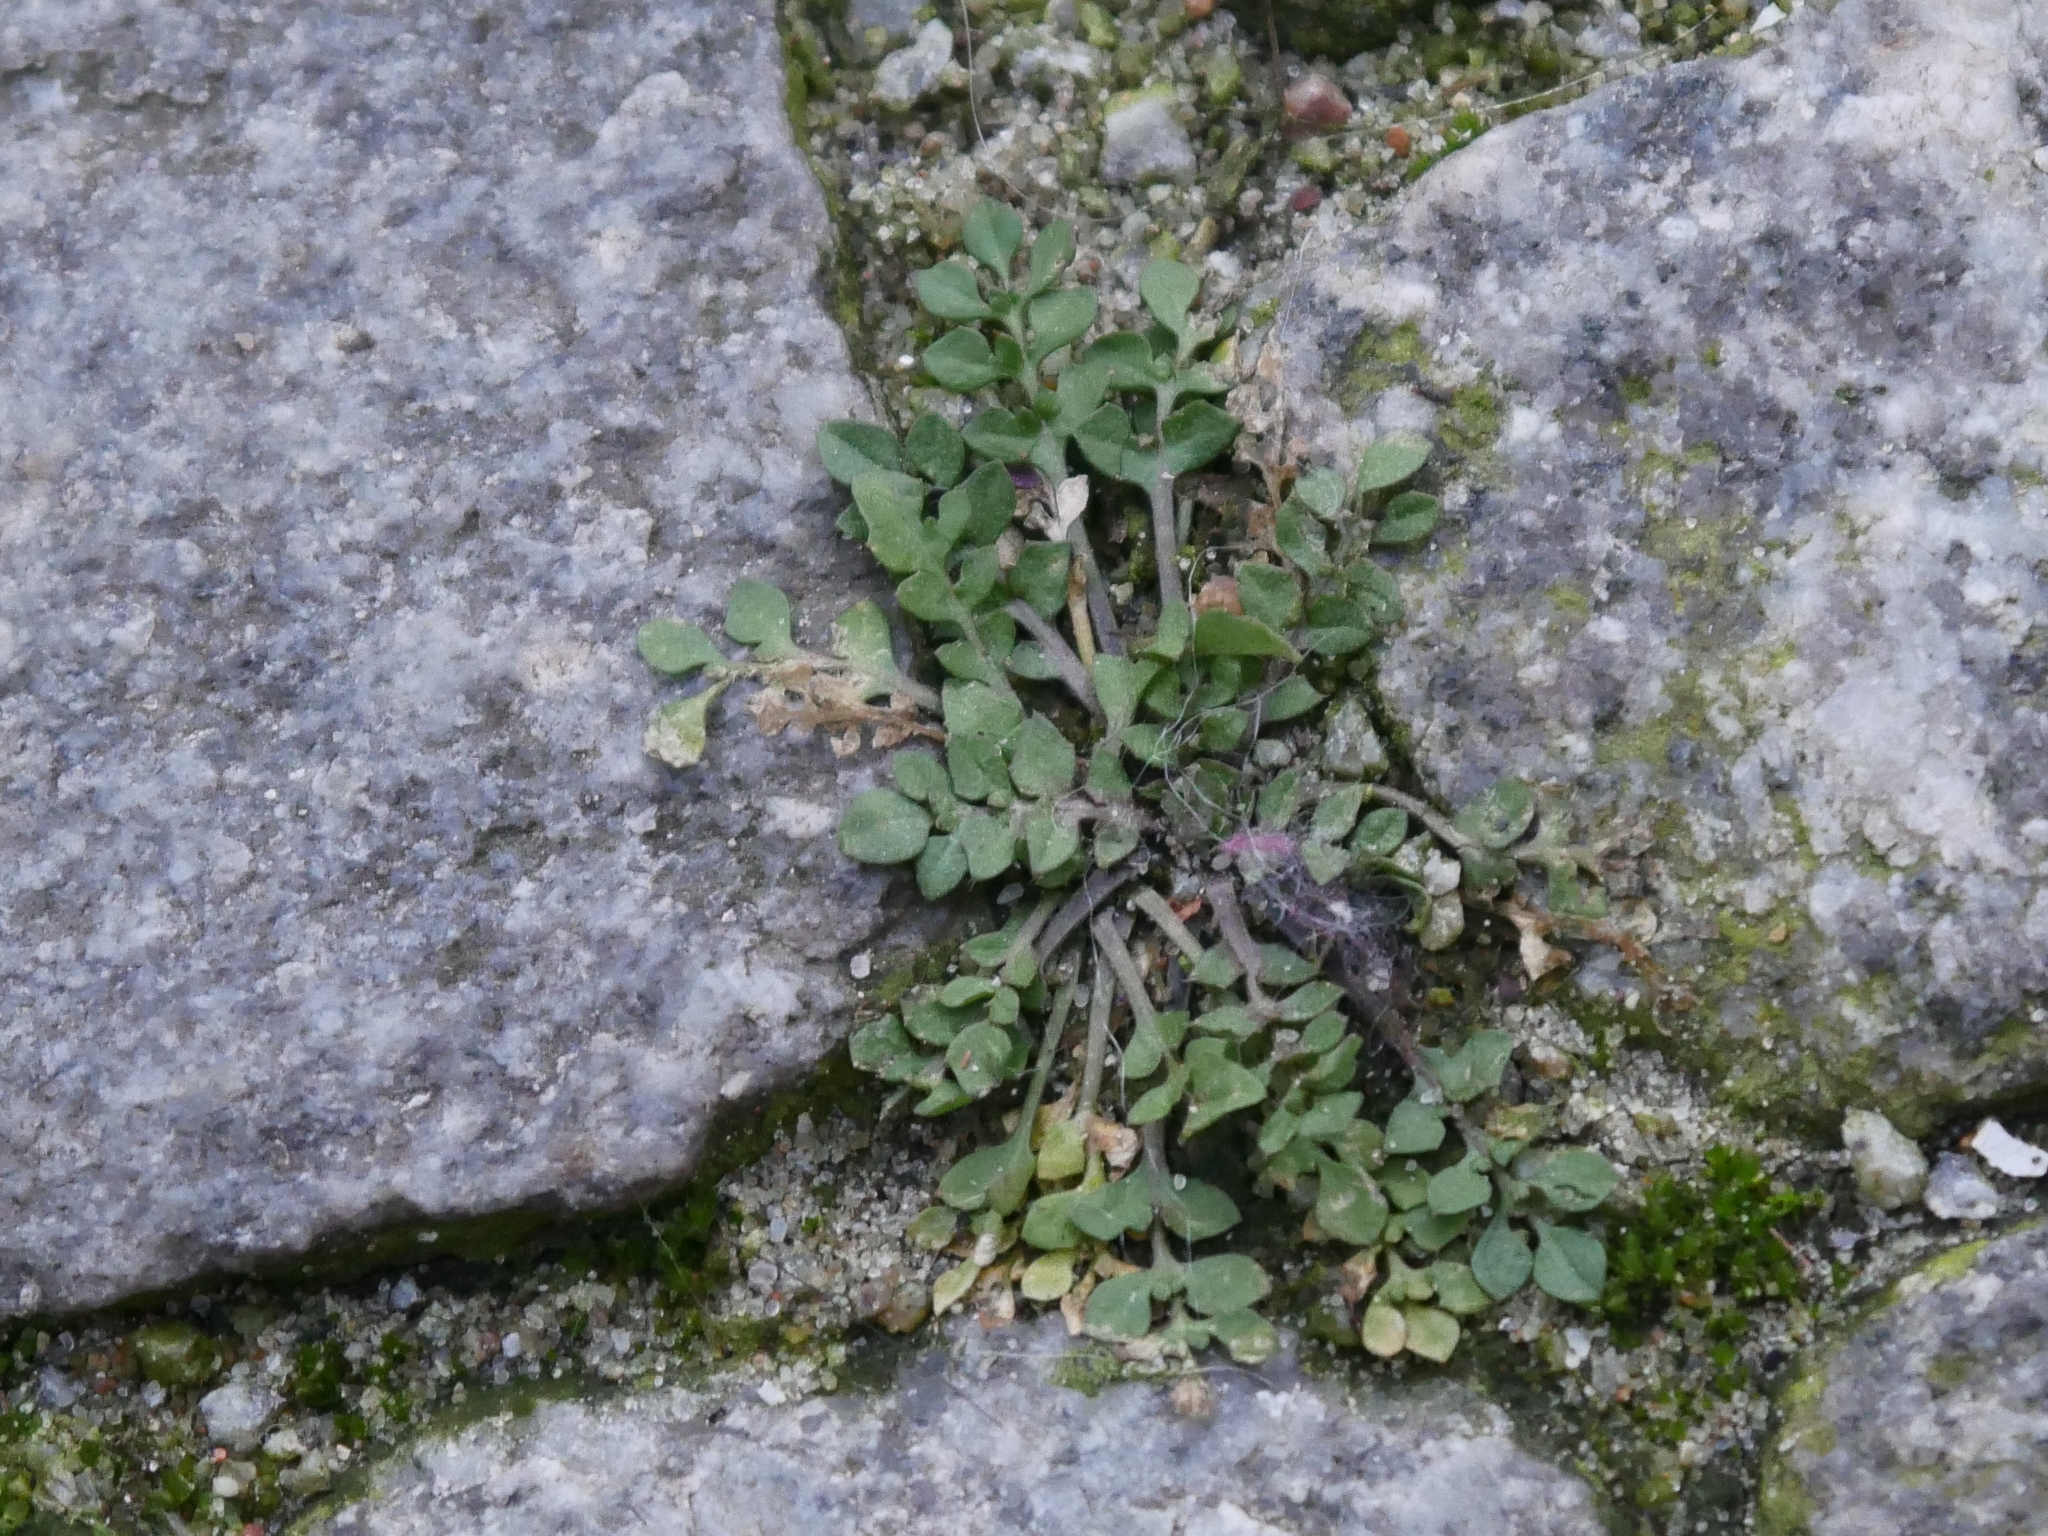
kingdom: Plantae
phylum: Tracheophyta
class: Magnoliopsida
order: Brassicales
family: Brassicaceae
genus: Capsella
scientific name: Capsella bursa-pastoris
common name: Shepherd's purse
